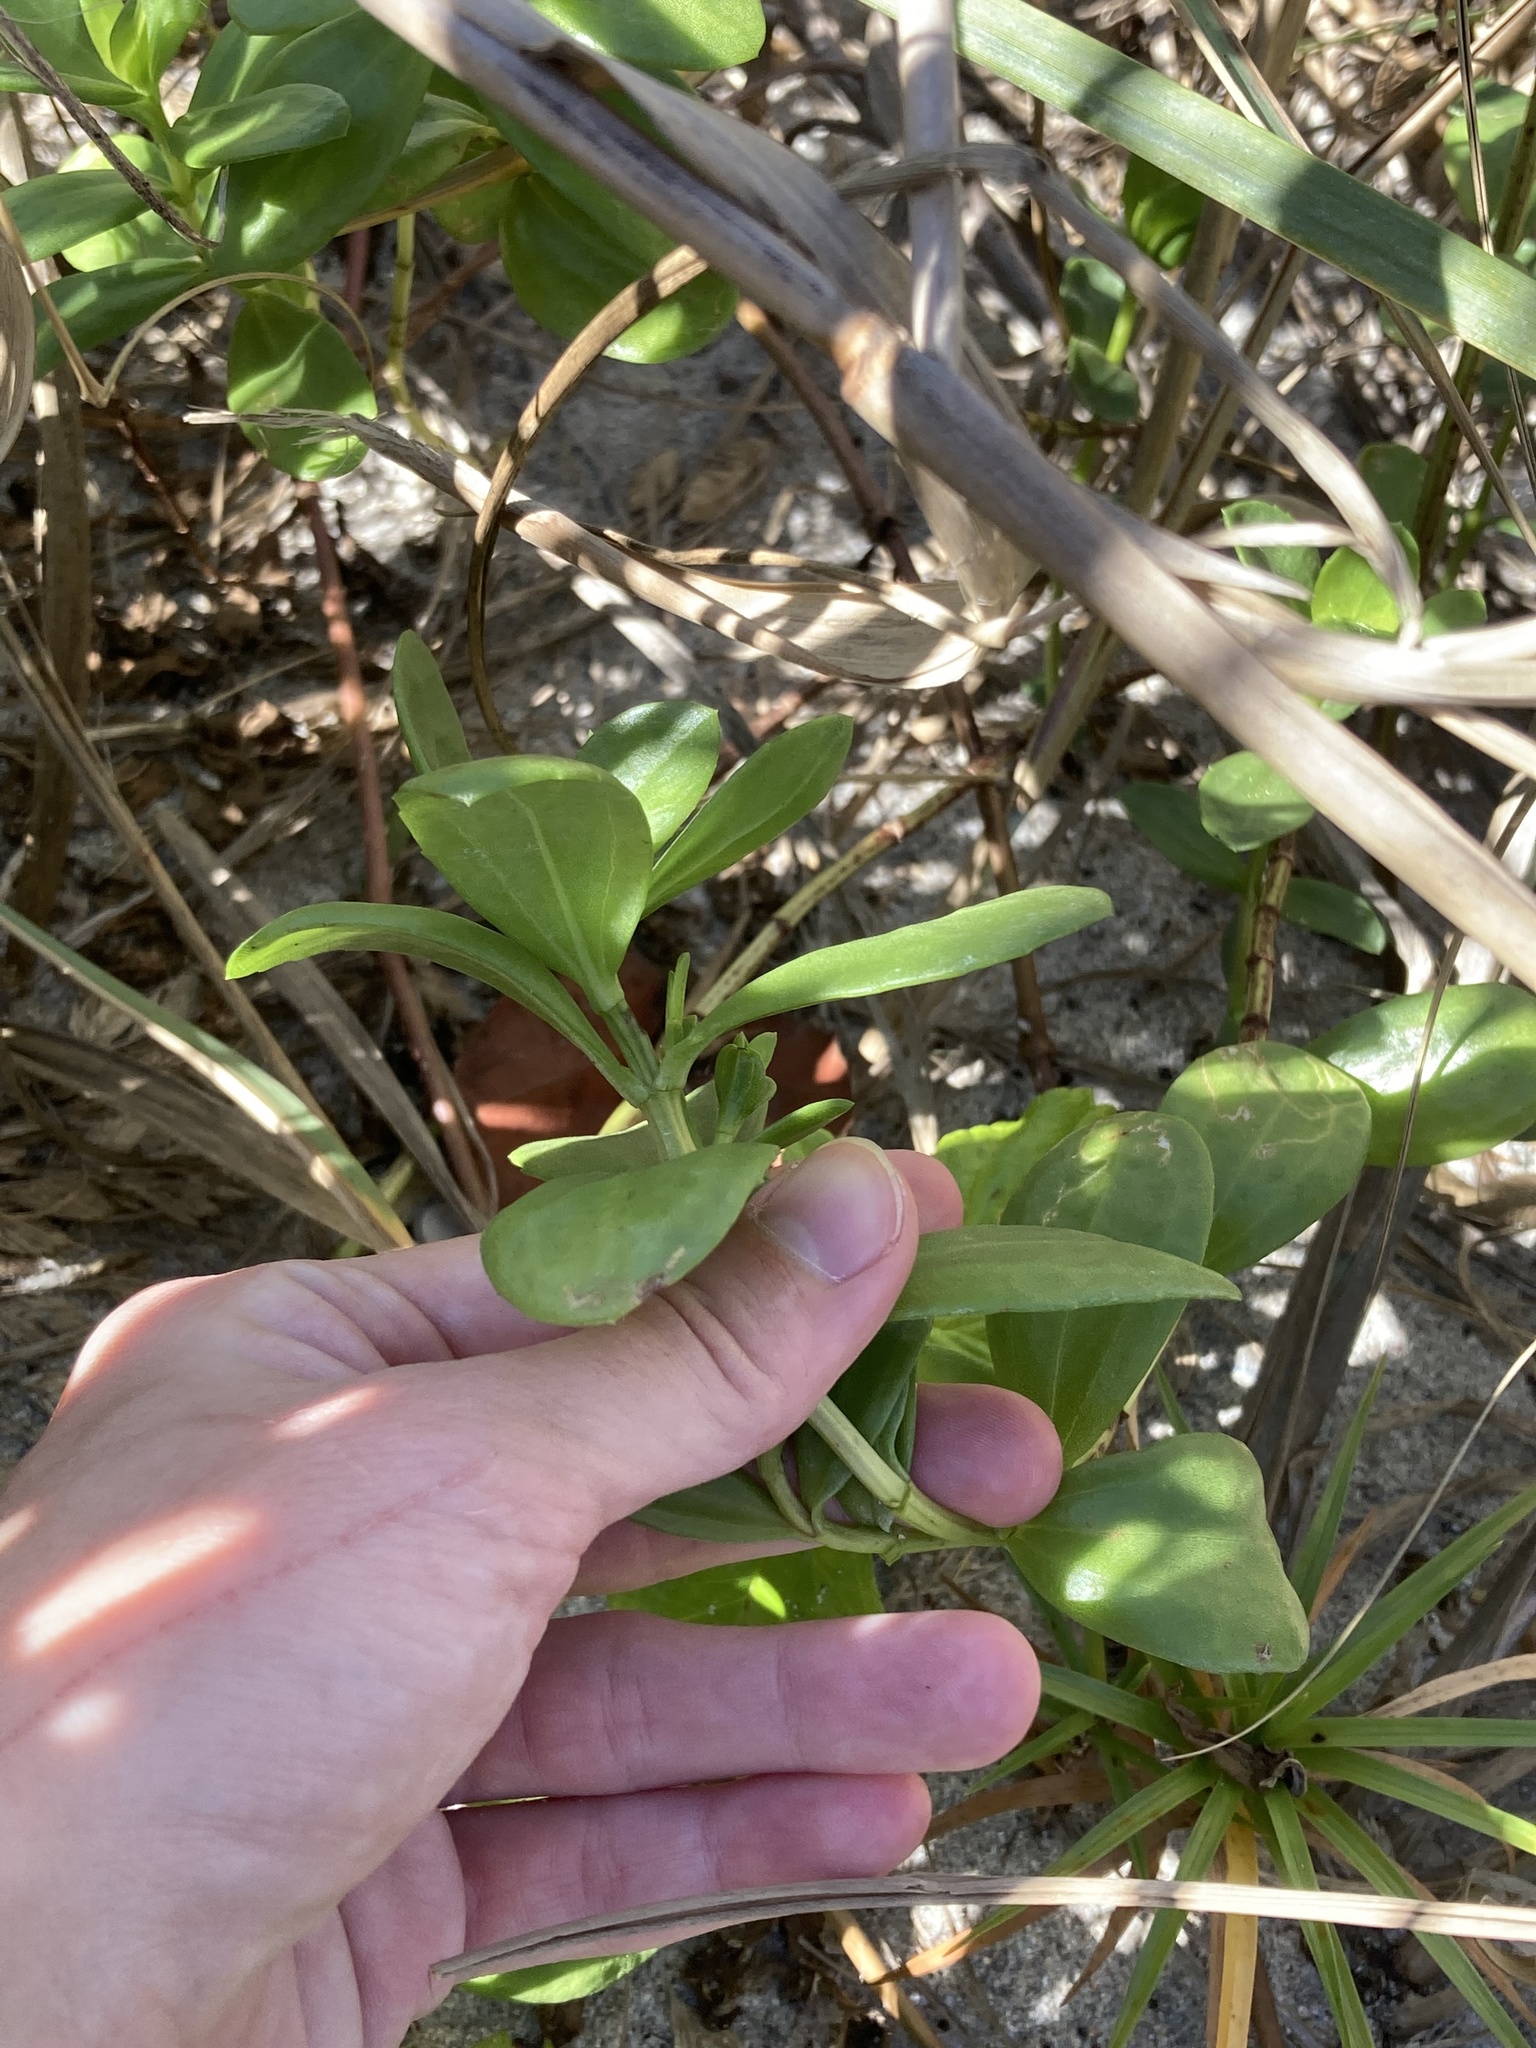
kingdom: Plantae
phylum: Tracheophyta
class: Magnoliopsida
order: Asterales
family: Asteraceae
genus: Iva
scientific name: Iva imbricata
